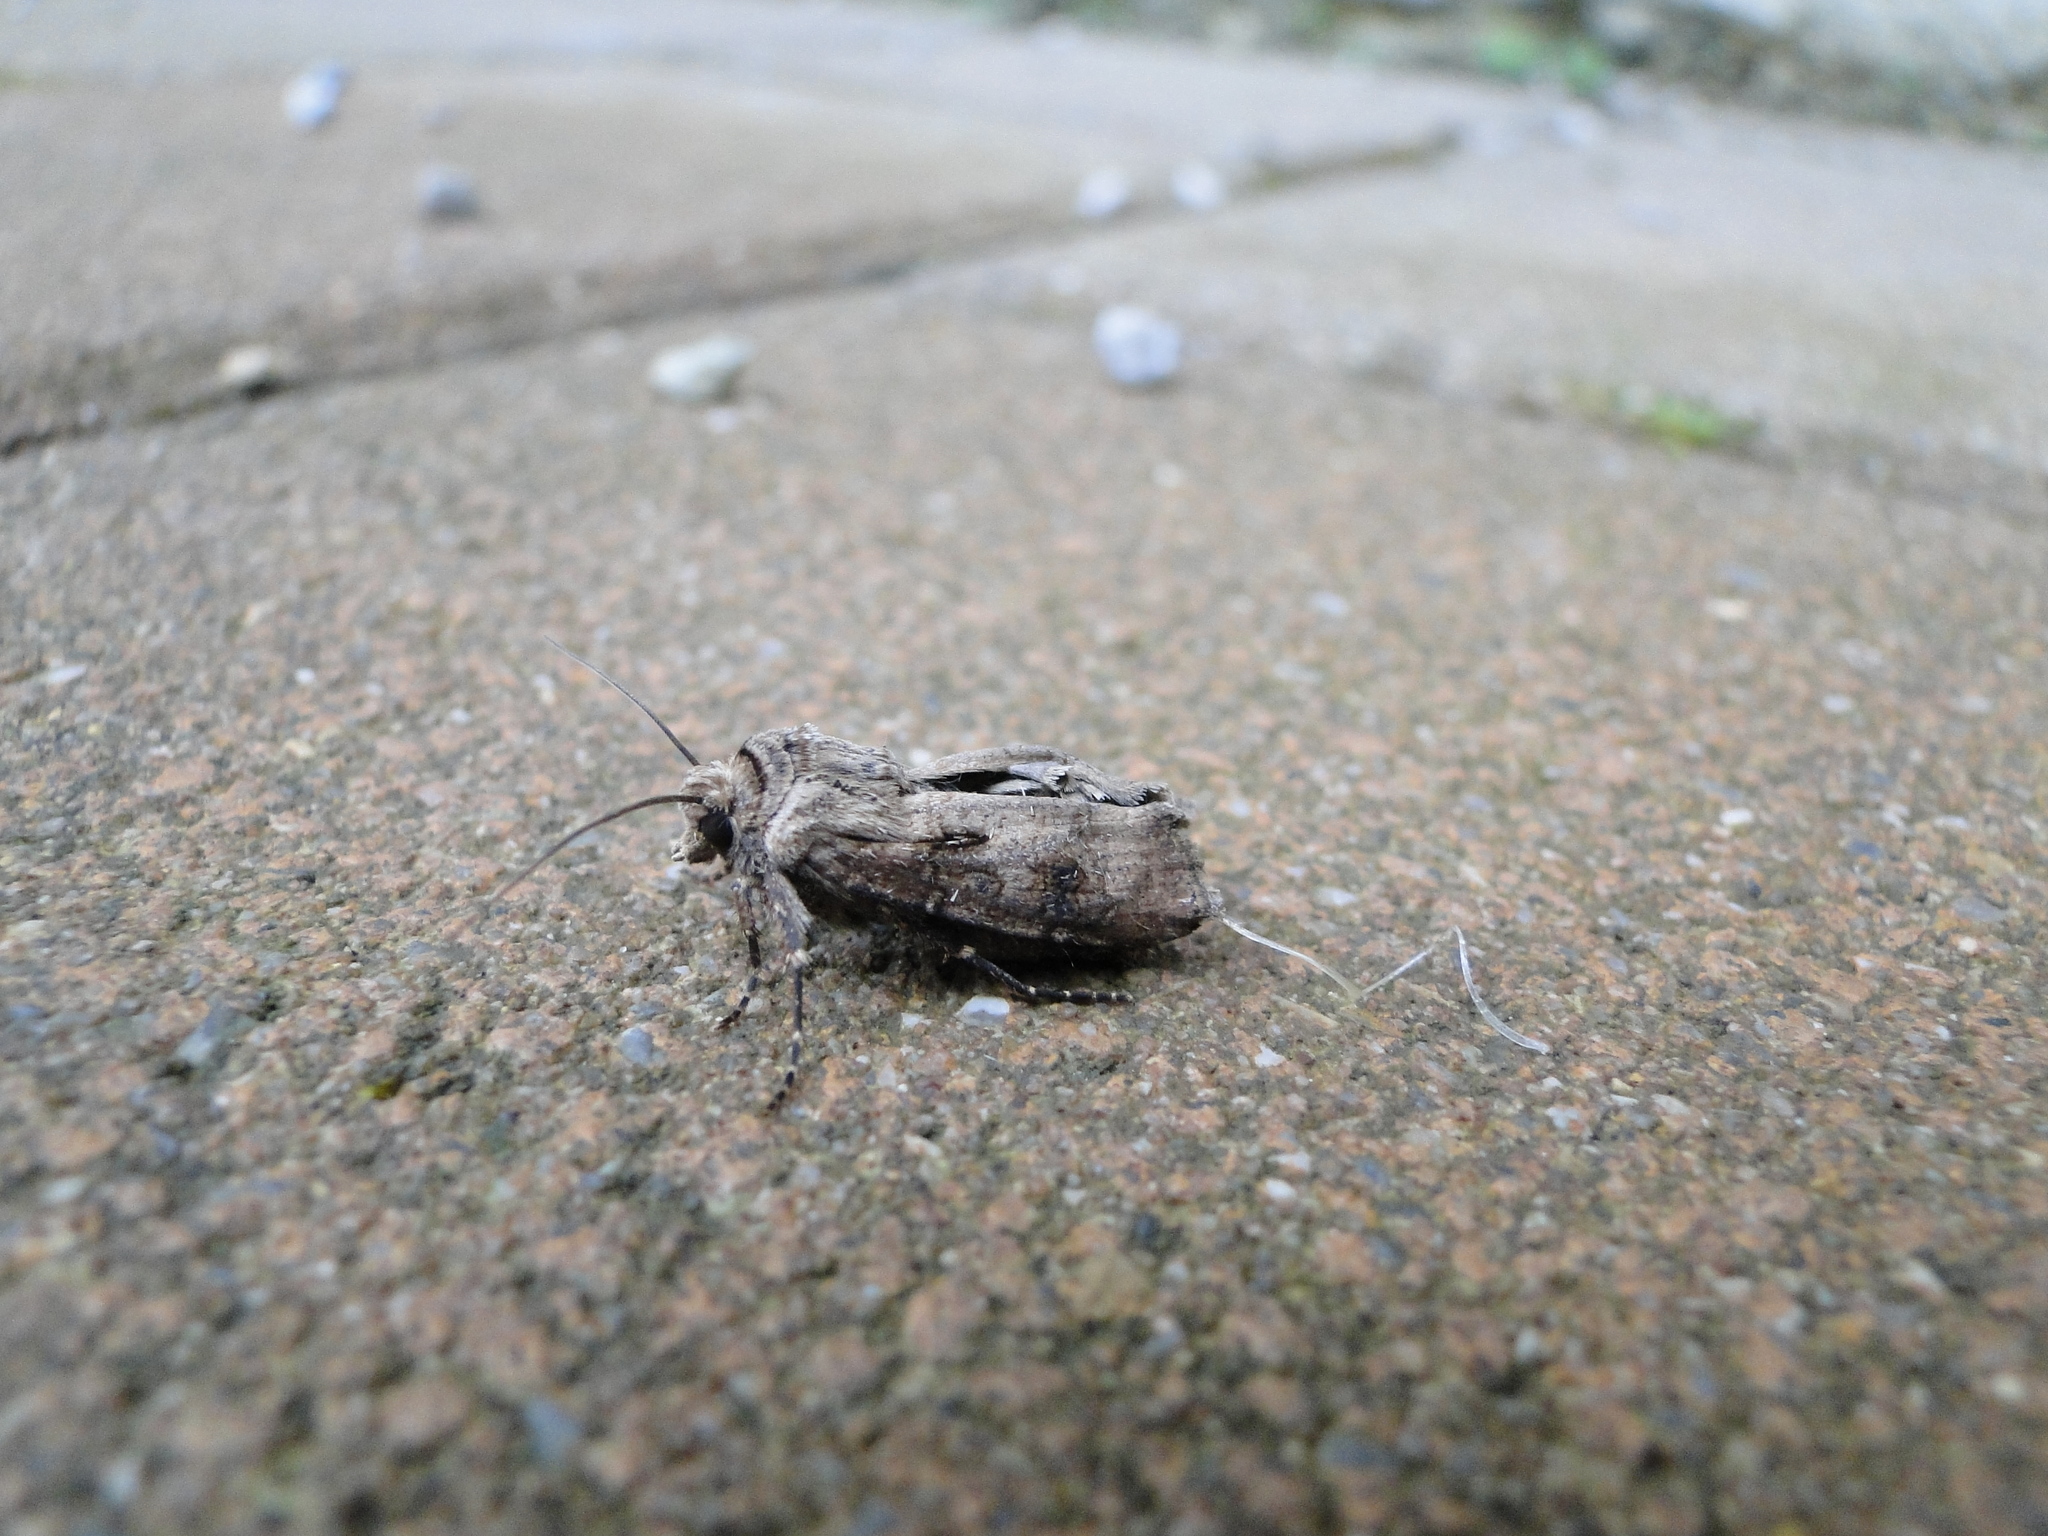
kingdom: Animalia
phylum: Arthropoda
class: Insecta
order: Lepidoptera
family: Noctuidae
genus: Agrotis
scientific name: Agrotis clavis
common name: Heart and club
